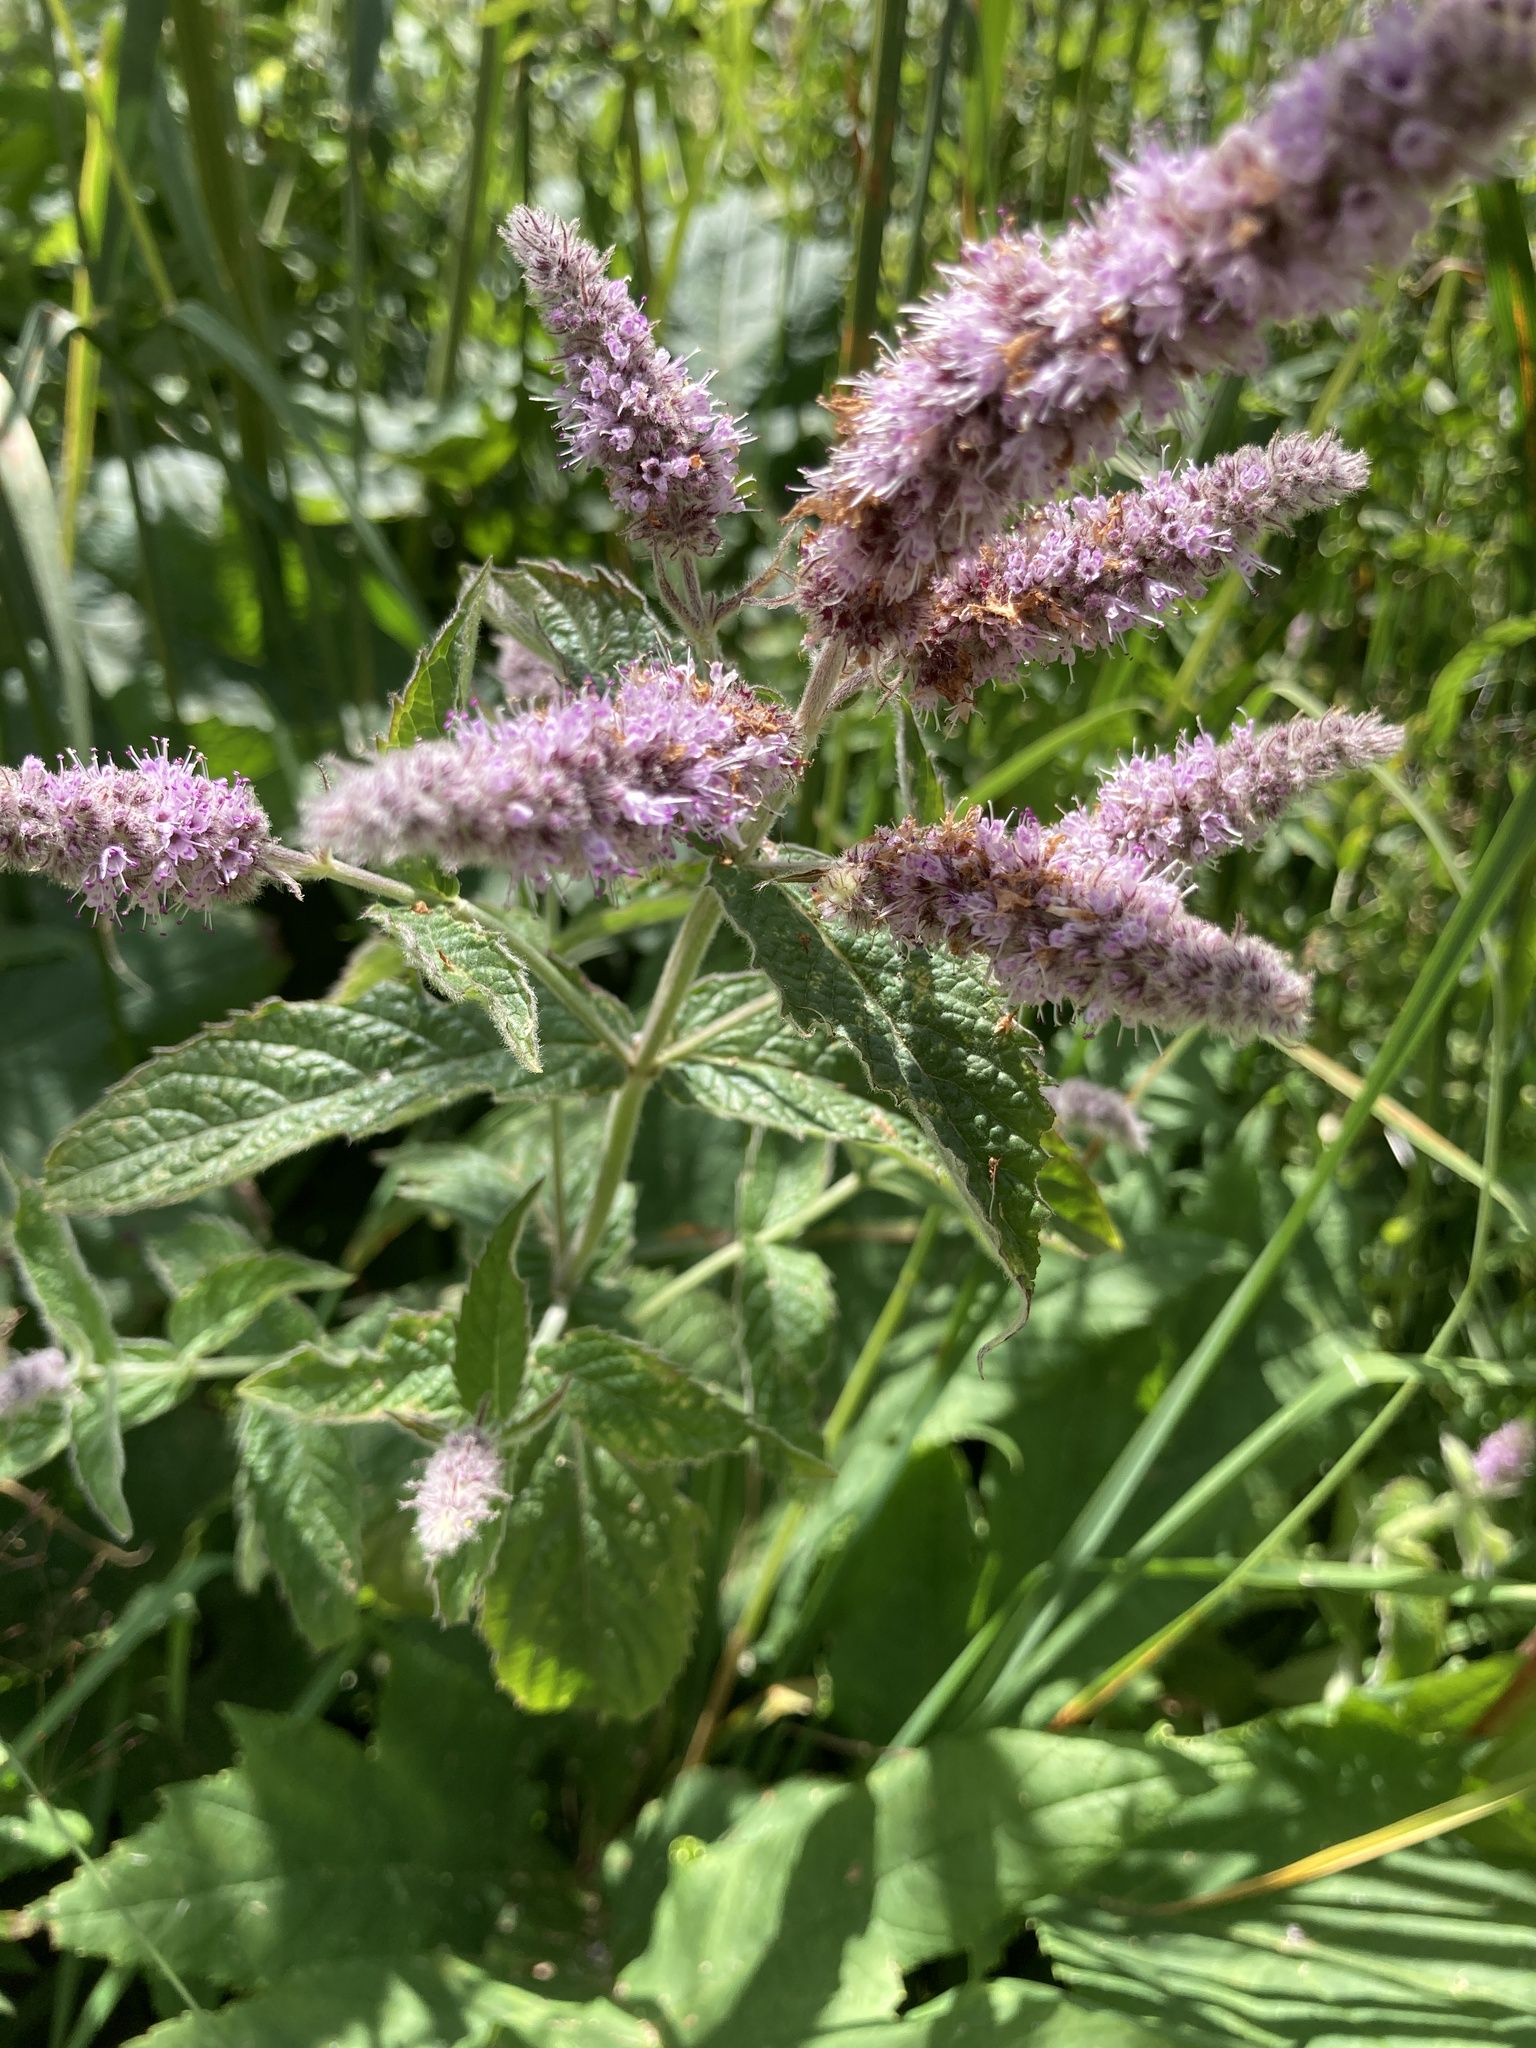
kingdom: Plantae
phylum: Tracheophyta
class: Magnoliopsida
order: Lamiales
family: Lamiaceae
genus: Mentha
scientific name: Mentha longifolia
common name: Horse mint
